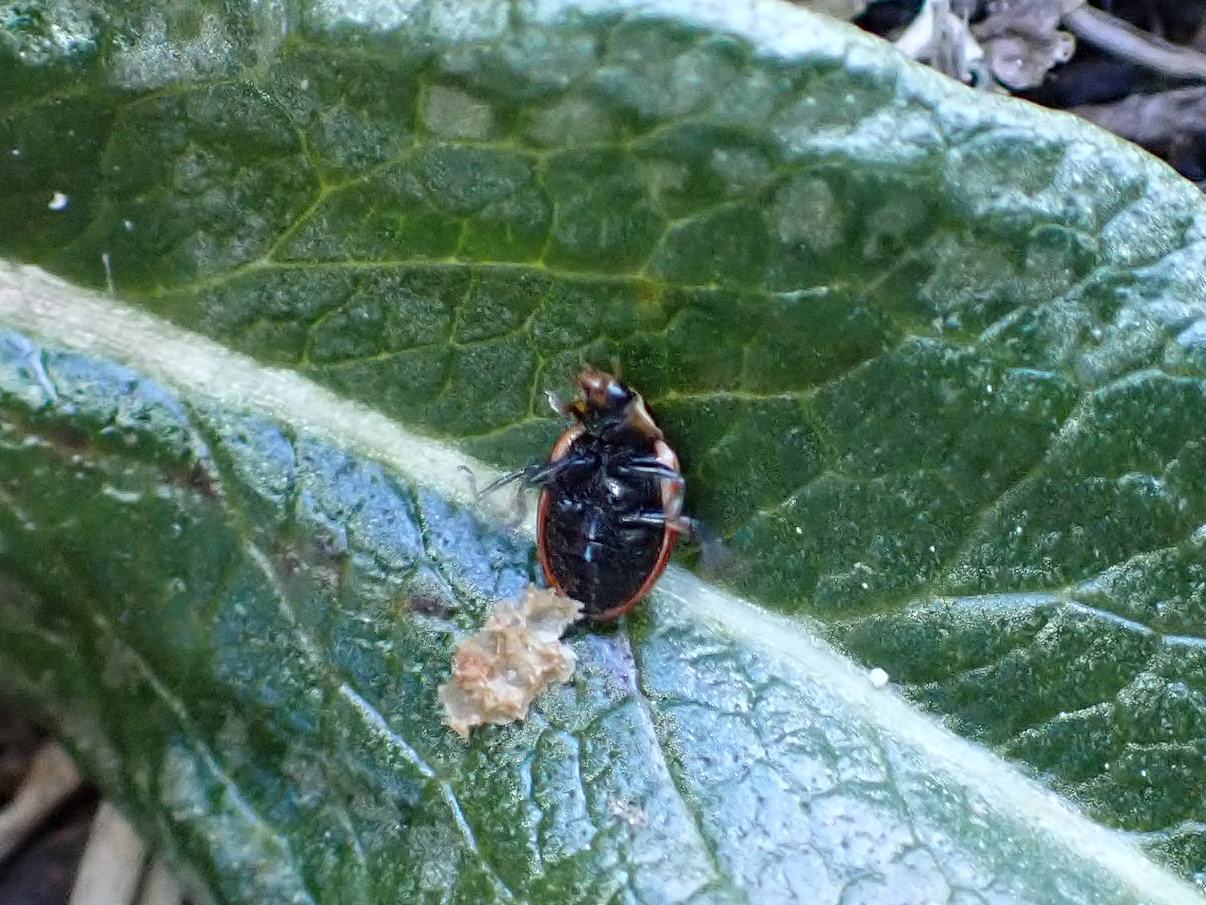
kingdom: Animalia
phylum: Arthropoda
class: Insecta
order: Coleoptera
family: Coccinellidae
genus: Hippodamia
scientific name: Hippodamia arctica
